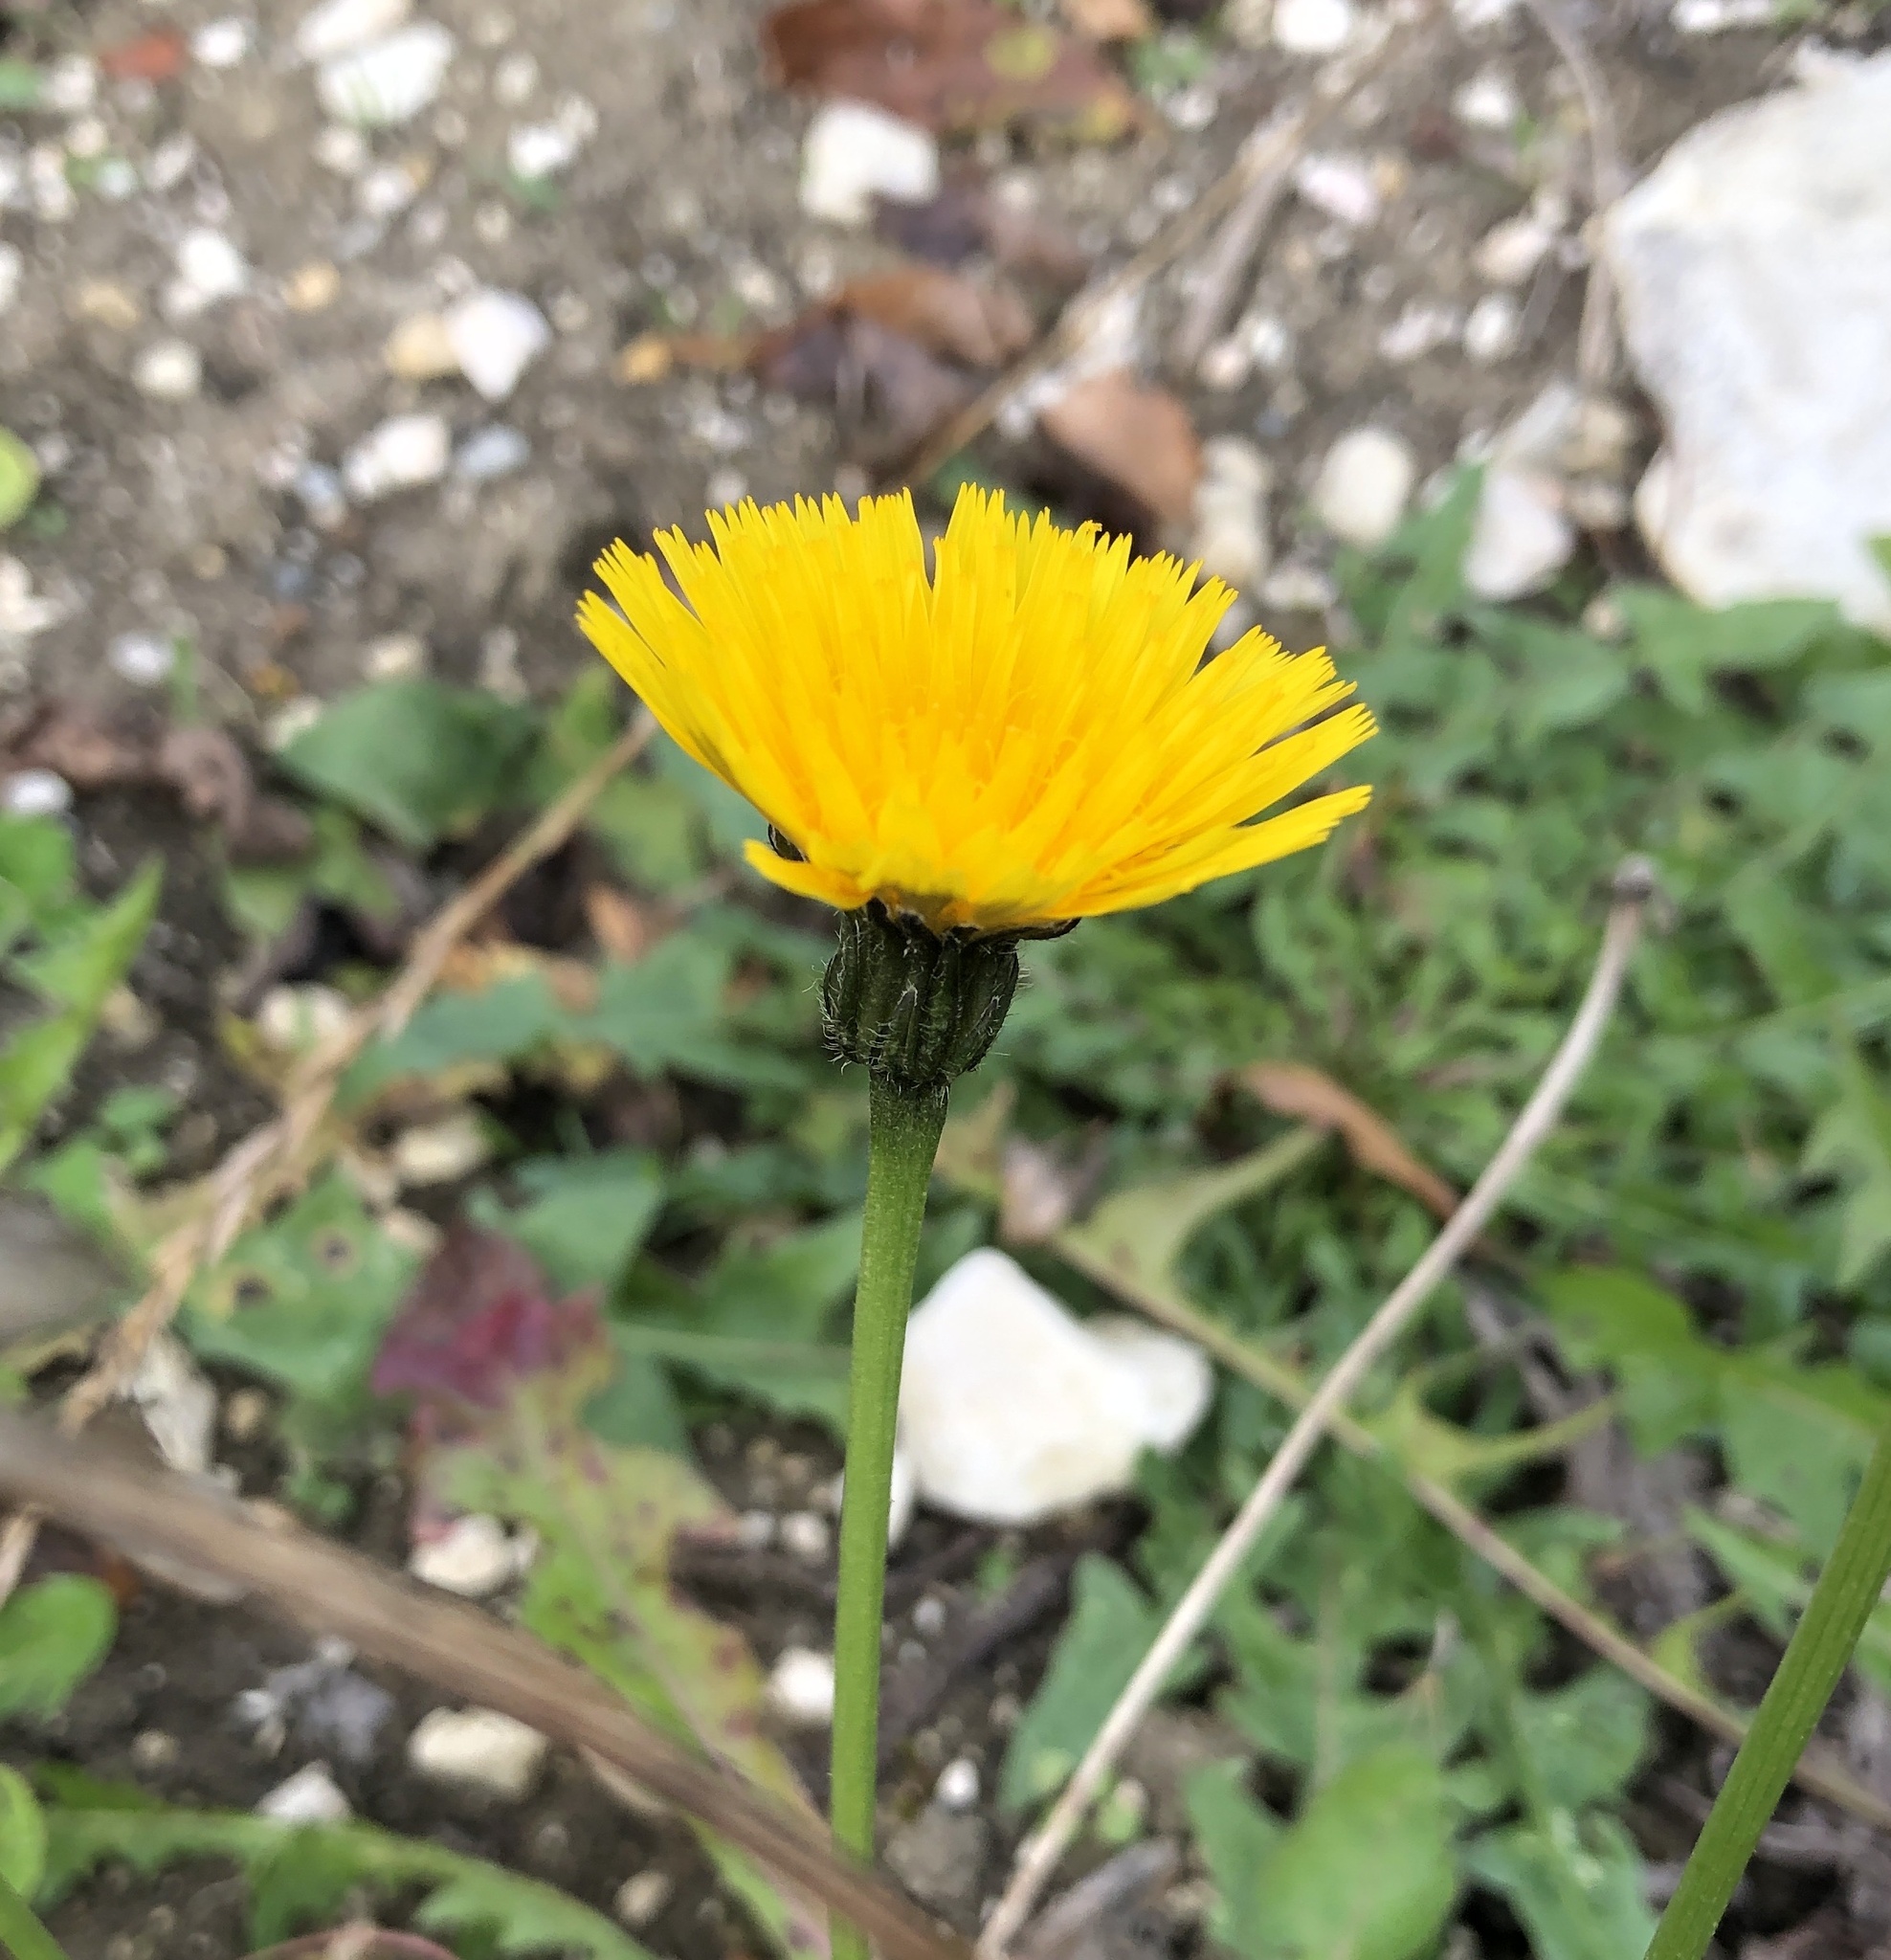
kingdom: Plantae
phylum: Tracheophyta
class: Magnoliopsida
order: Asterales
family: Asteraceae
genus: Leontodon
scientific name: Leontodon hispidus
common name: Rough hawkbit
